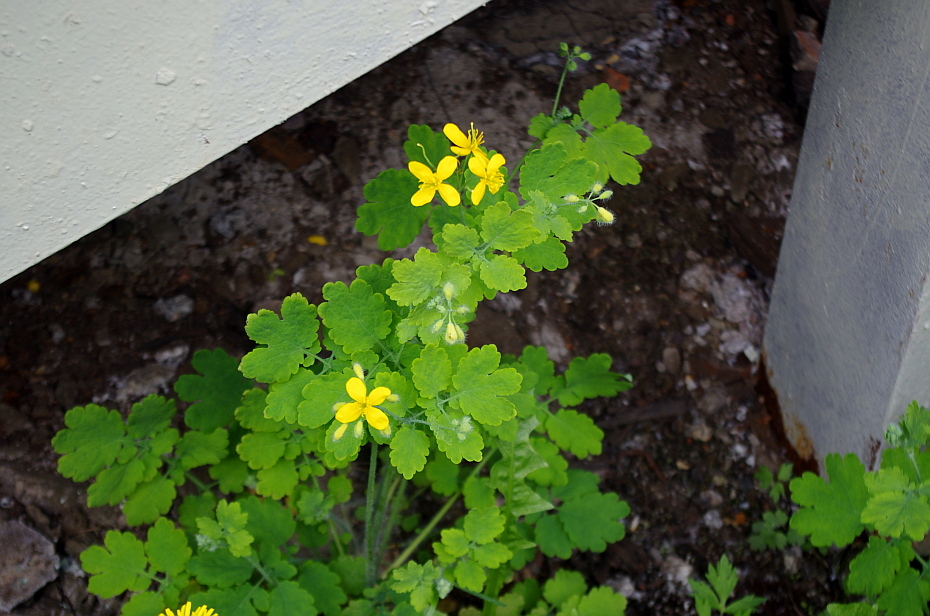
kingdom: Plantae
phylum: Tracheophyta
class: Magnoliopsida
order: Ranunculales
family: Papaveraceae
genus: Chelidonium
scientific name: Chelidonium majus
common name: Greater celandine
